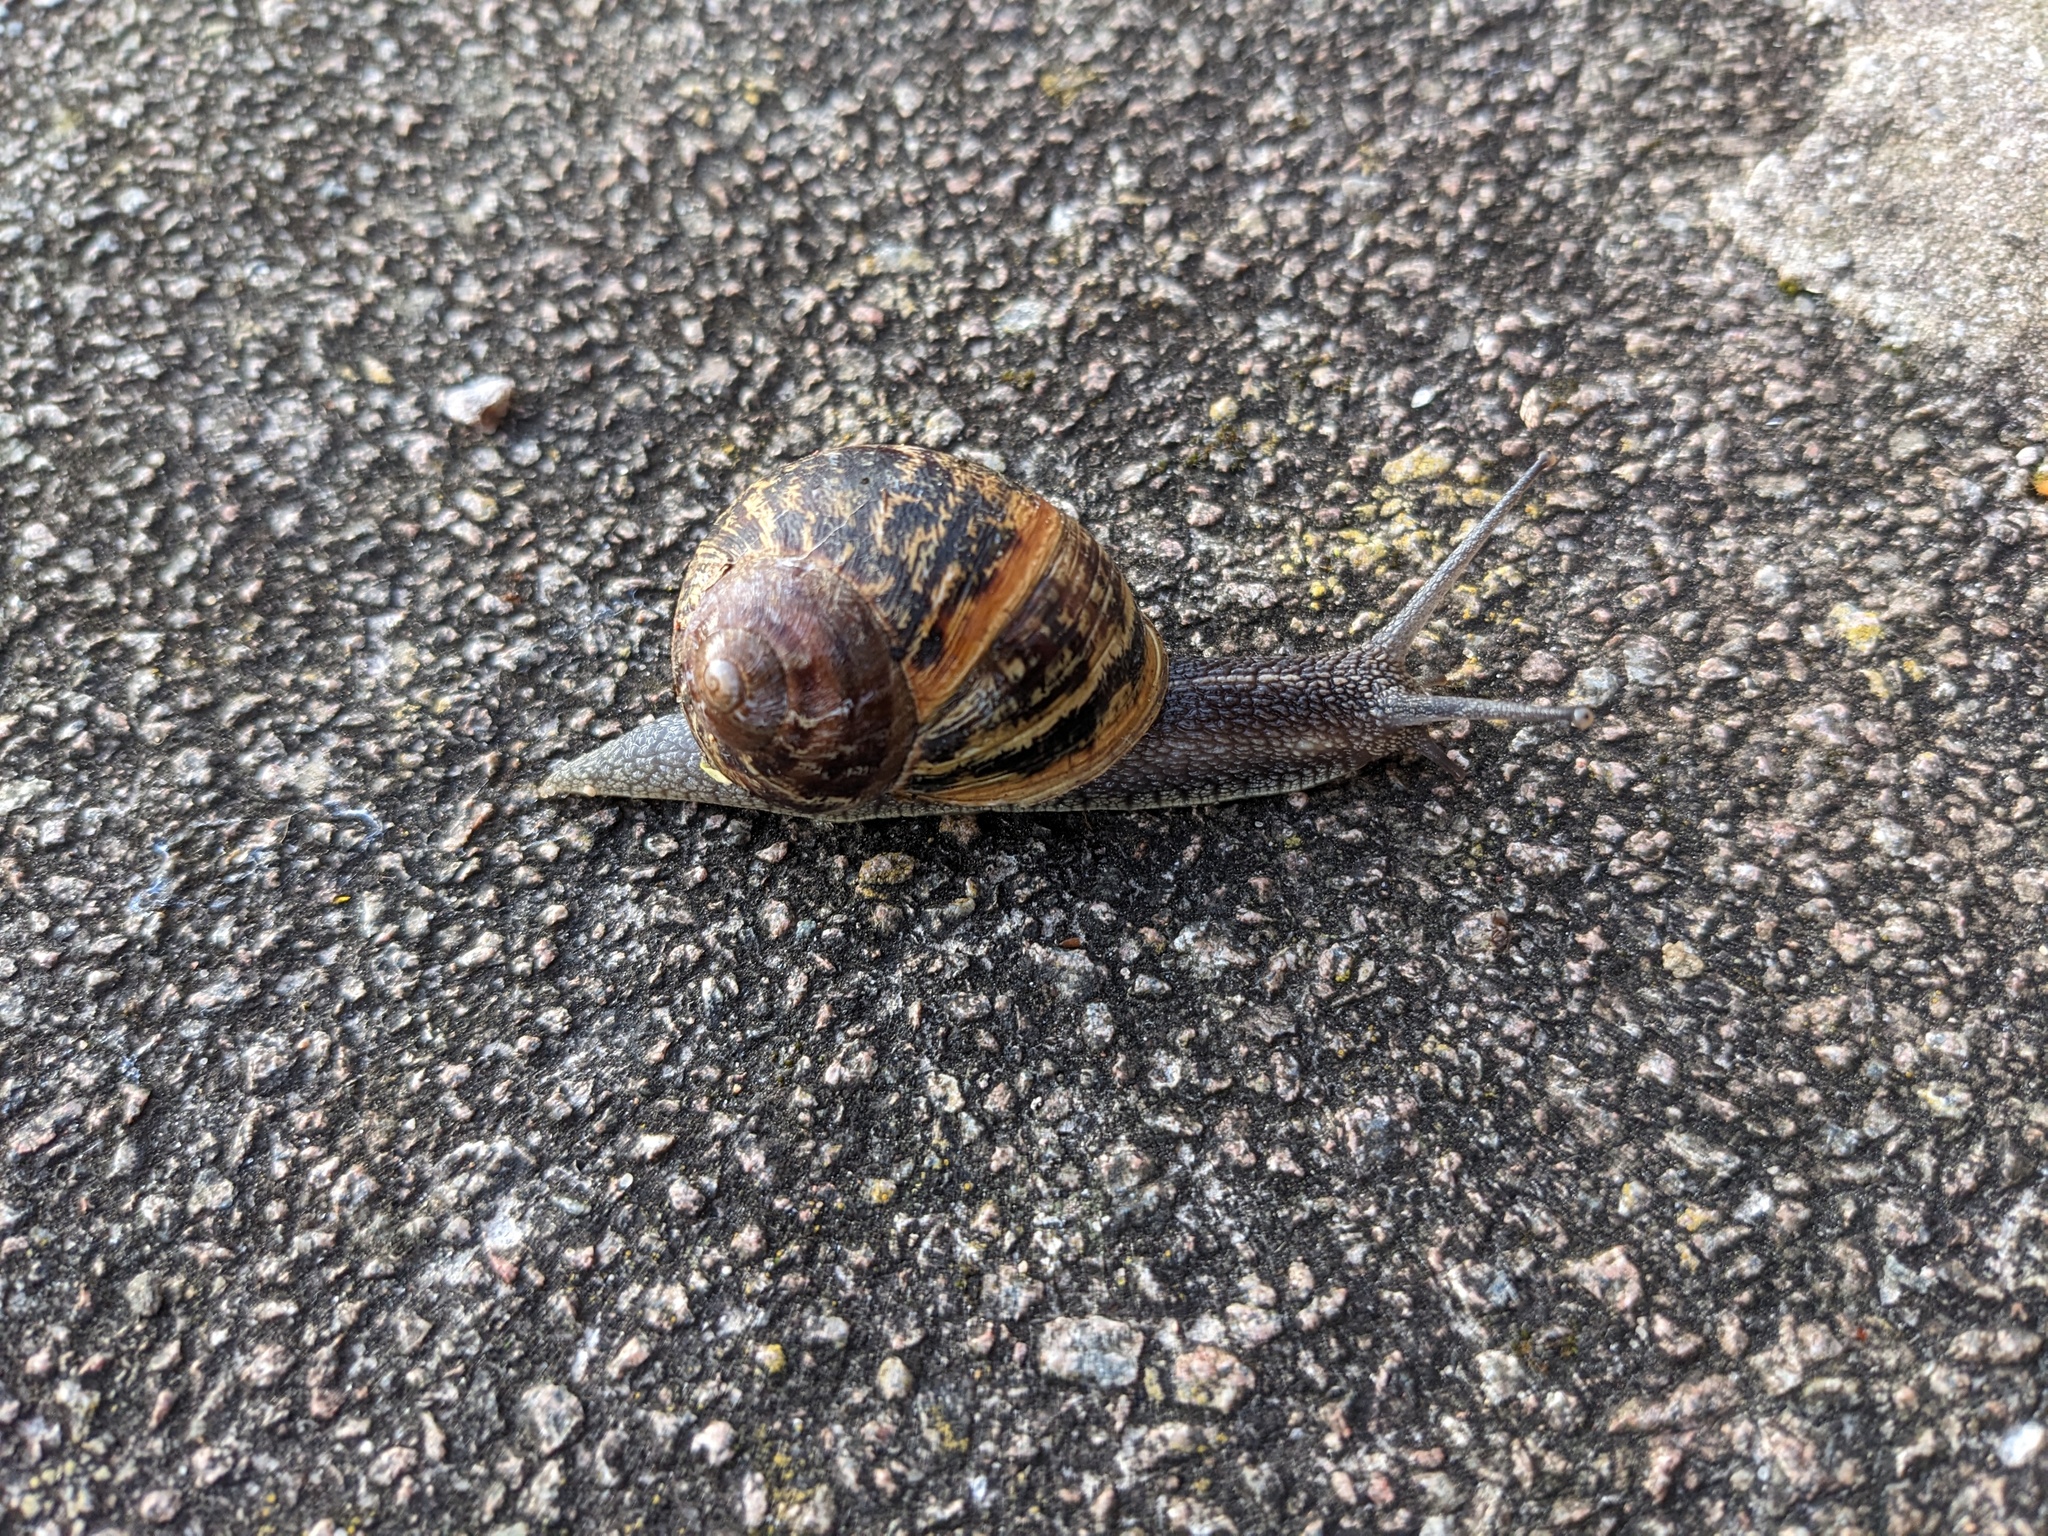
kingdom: Animalia
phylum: Mollusca
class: Gastropoda
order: Stylommatophora
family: Helicidae
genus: Cornu
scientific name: Cornu aspersum
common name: Brown garden snail
